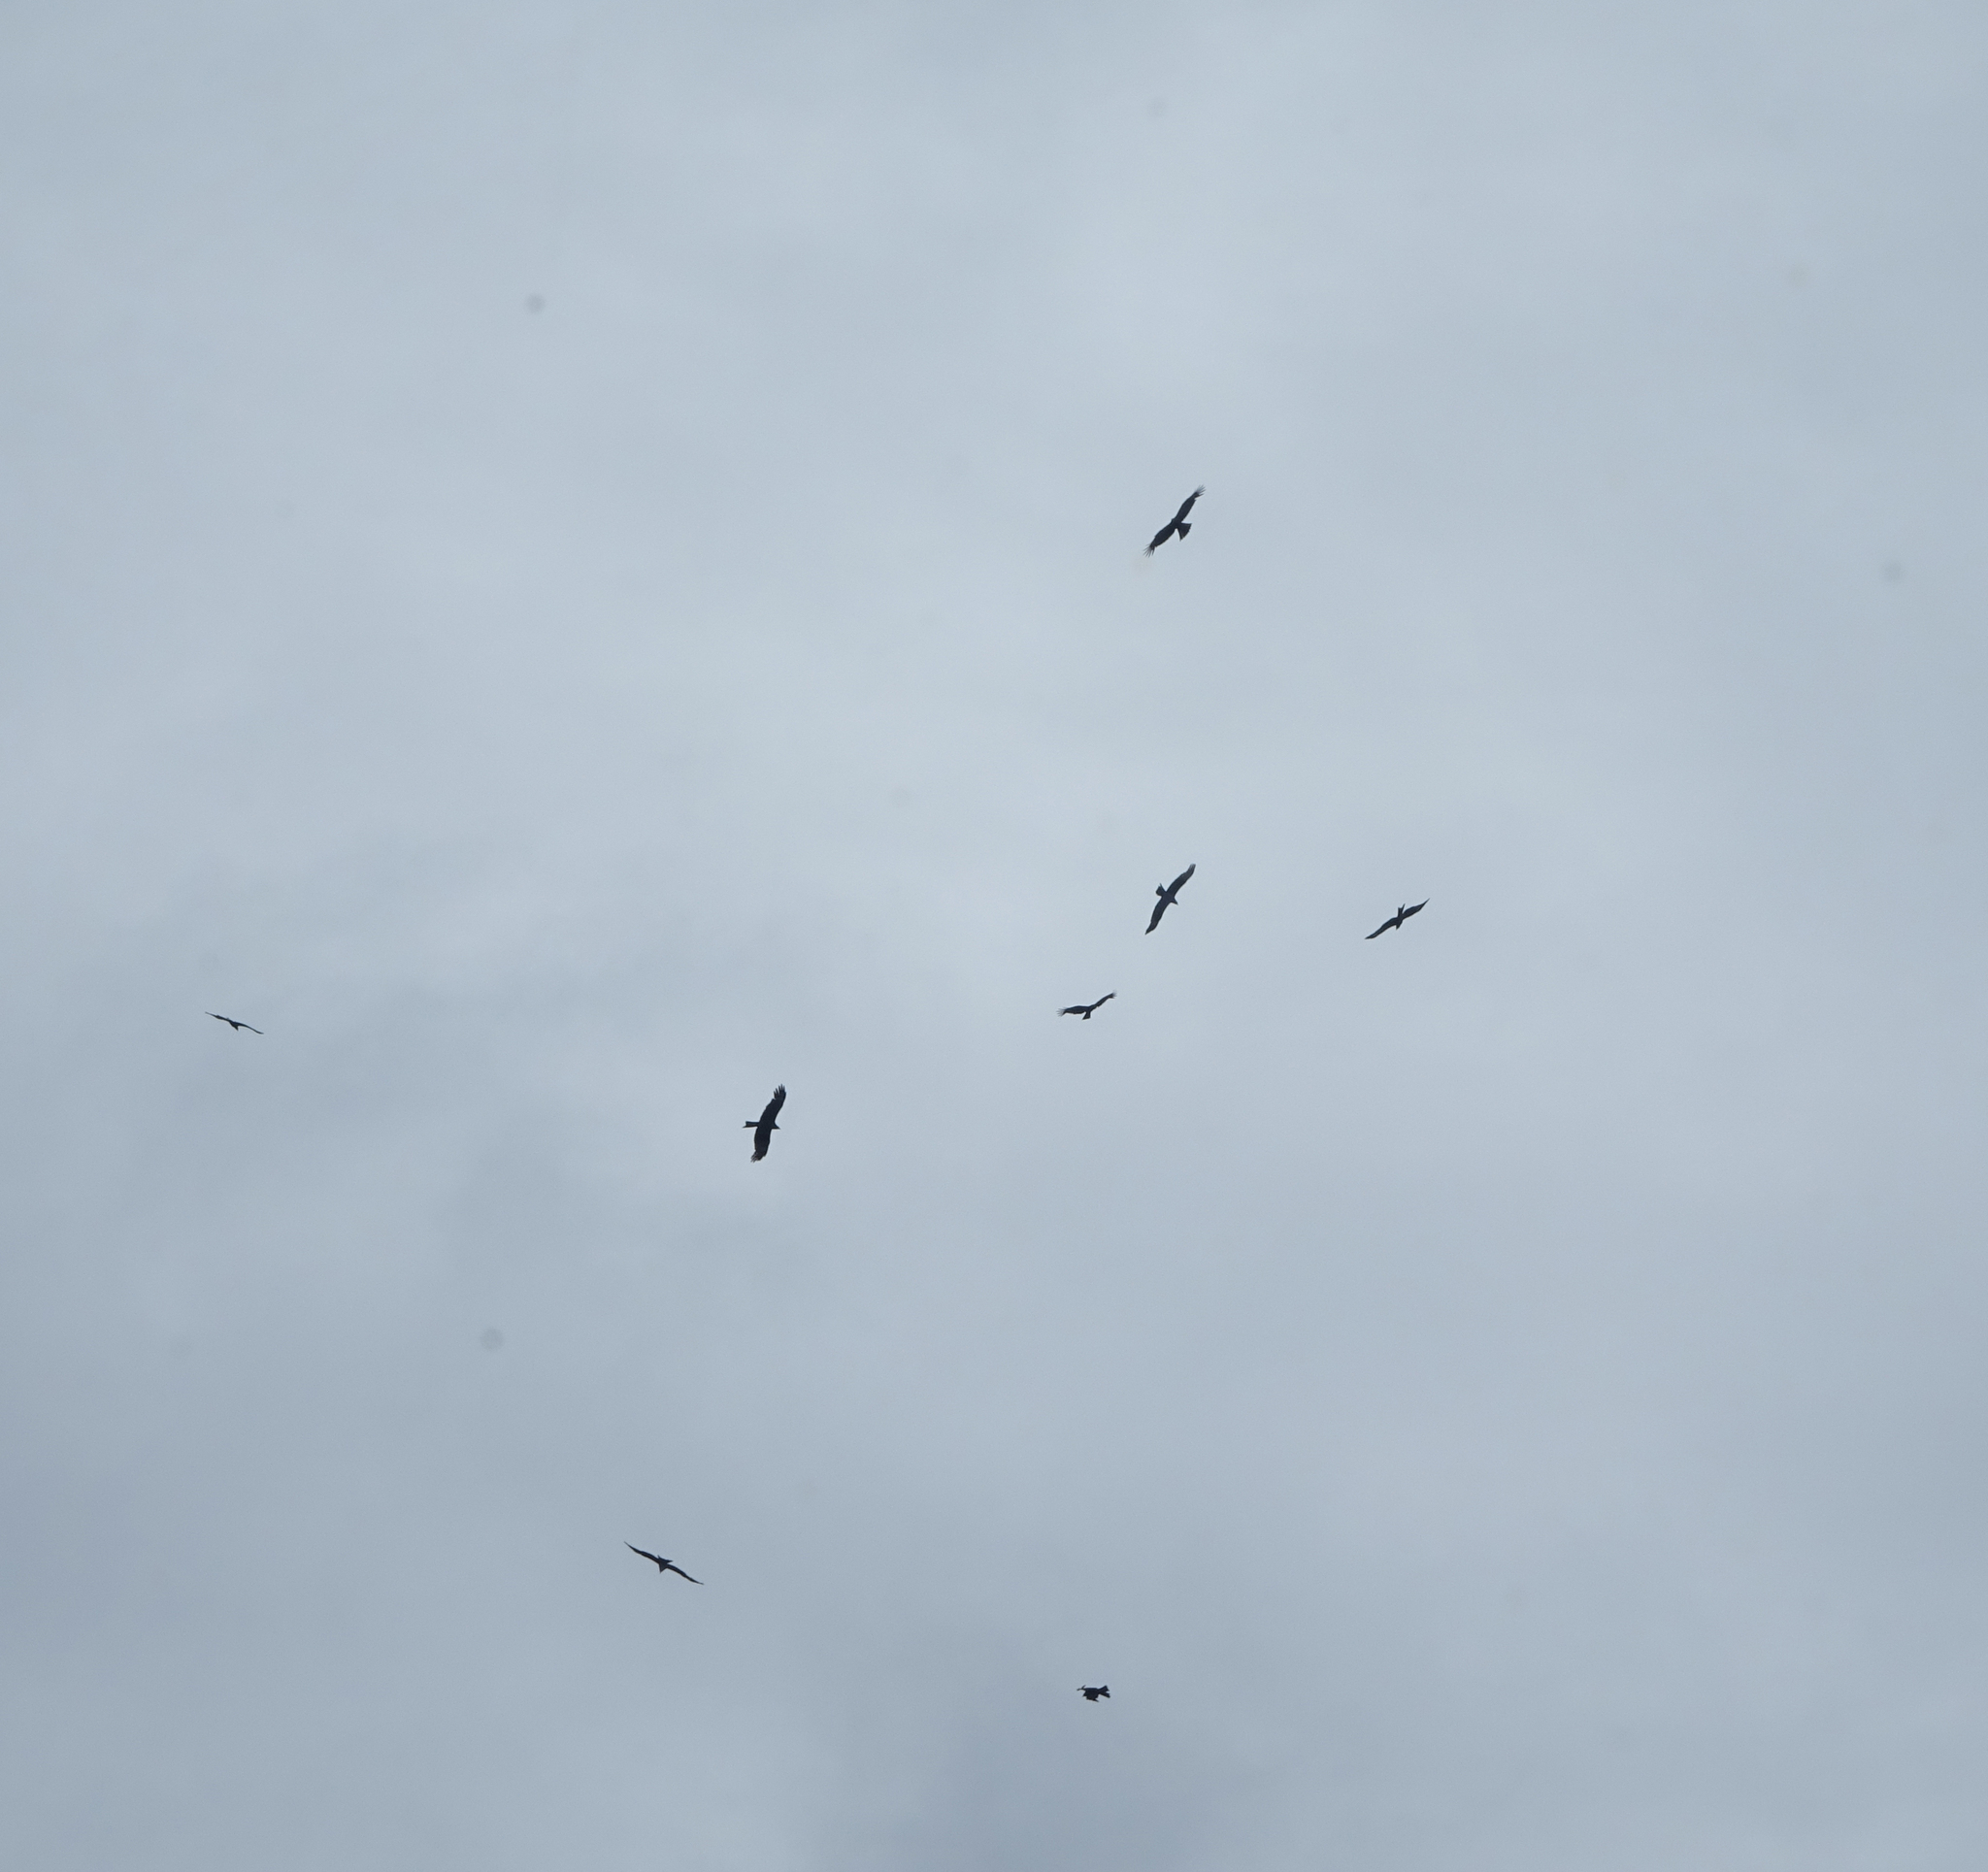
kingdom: Animalia
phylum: Chordata
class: Aves
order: Accipitriformes
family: Accipitridae
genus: Milvus
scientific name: Milvus migrans
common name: Black kite
